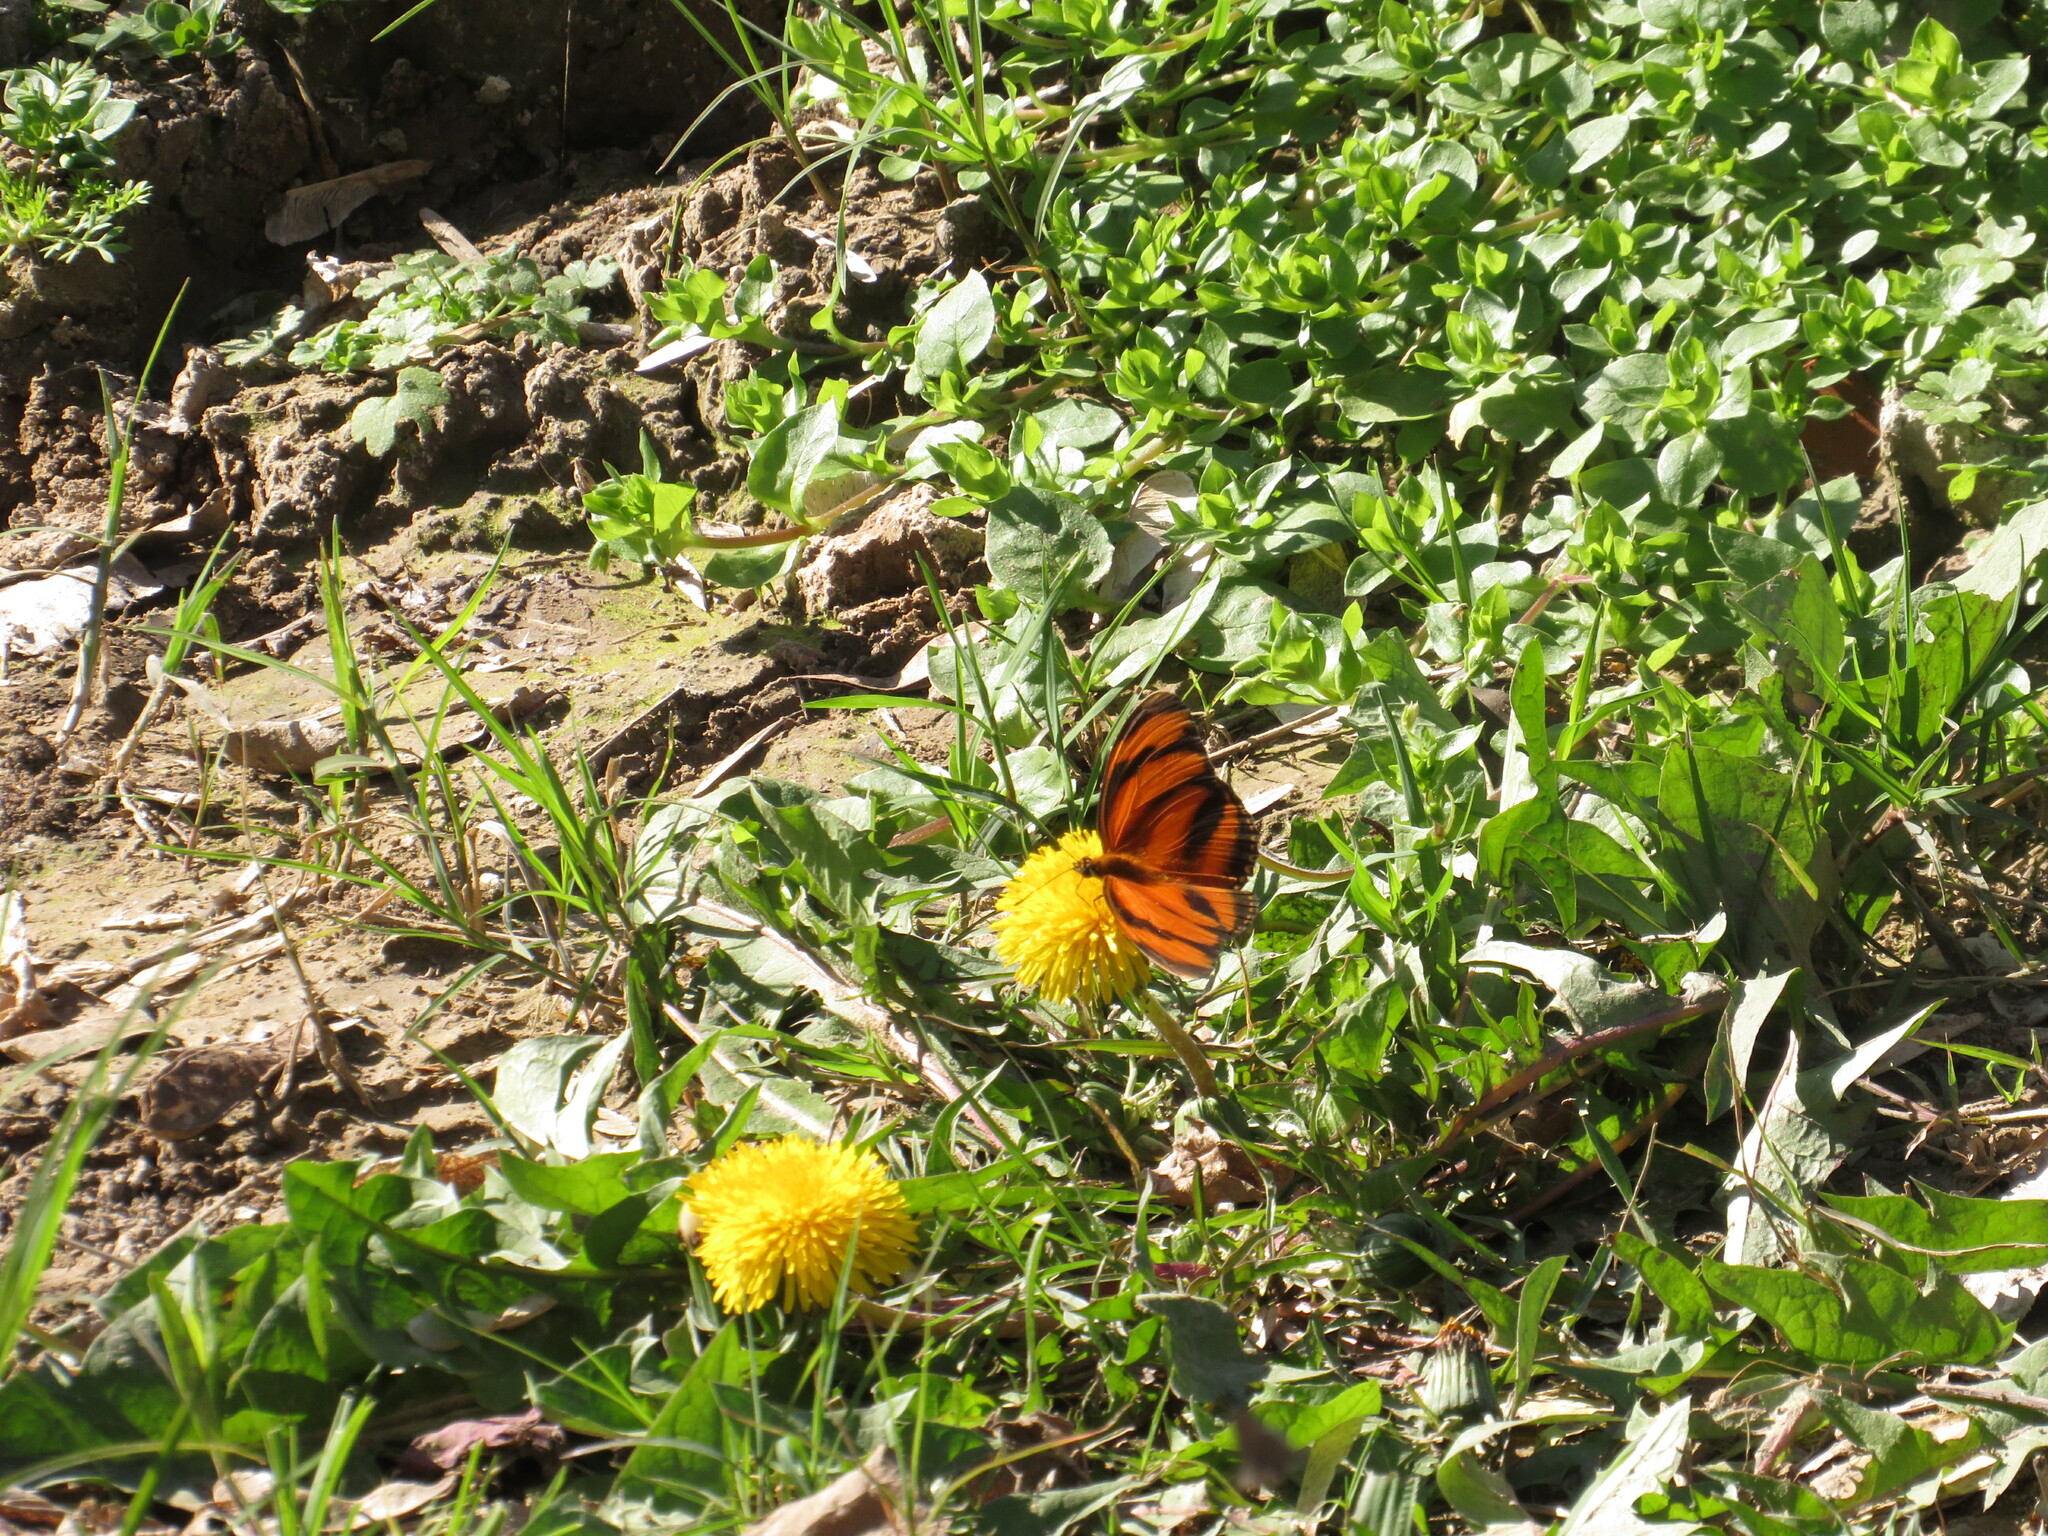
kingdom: Animalia
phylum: Arthropoda
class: Insecta
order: Lepidoptera
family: Nymphalidae
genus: Dryadula
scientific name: Dryadula phaetusa
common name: Banded orange heliconian
